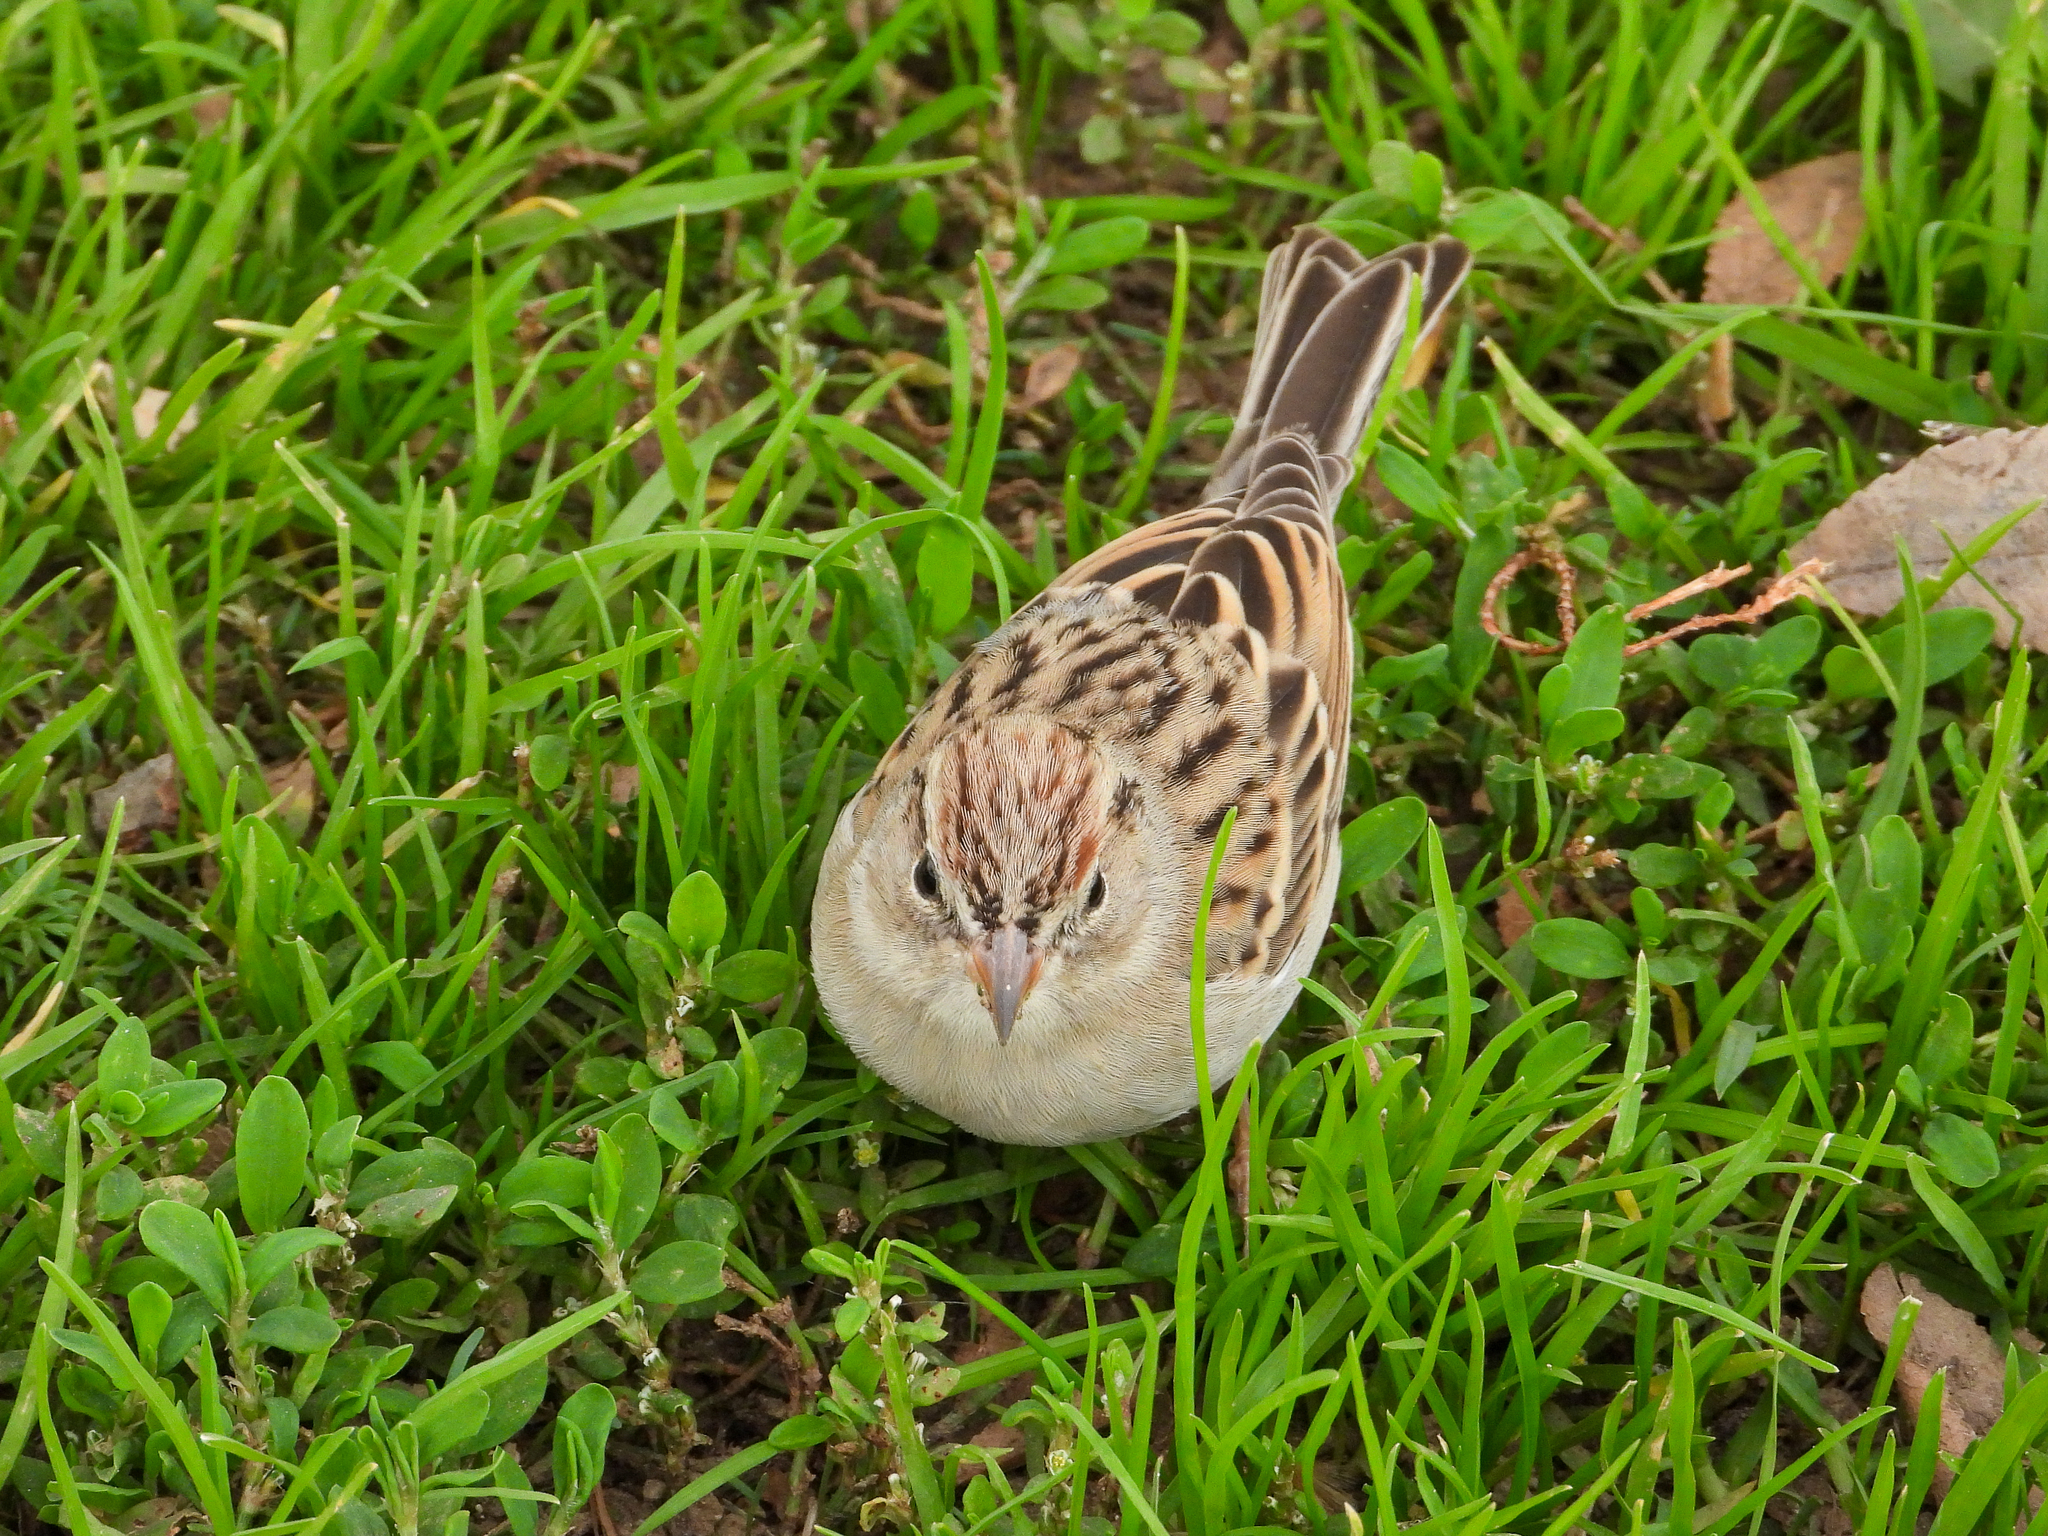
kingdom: Animalia
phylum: Chordata
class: Aves
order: Passeriformes
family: Passerellidae
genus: Spizella
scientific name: Spizella passerina
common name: Chipping sparrow
